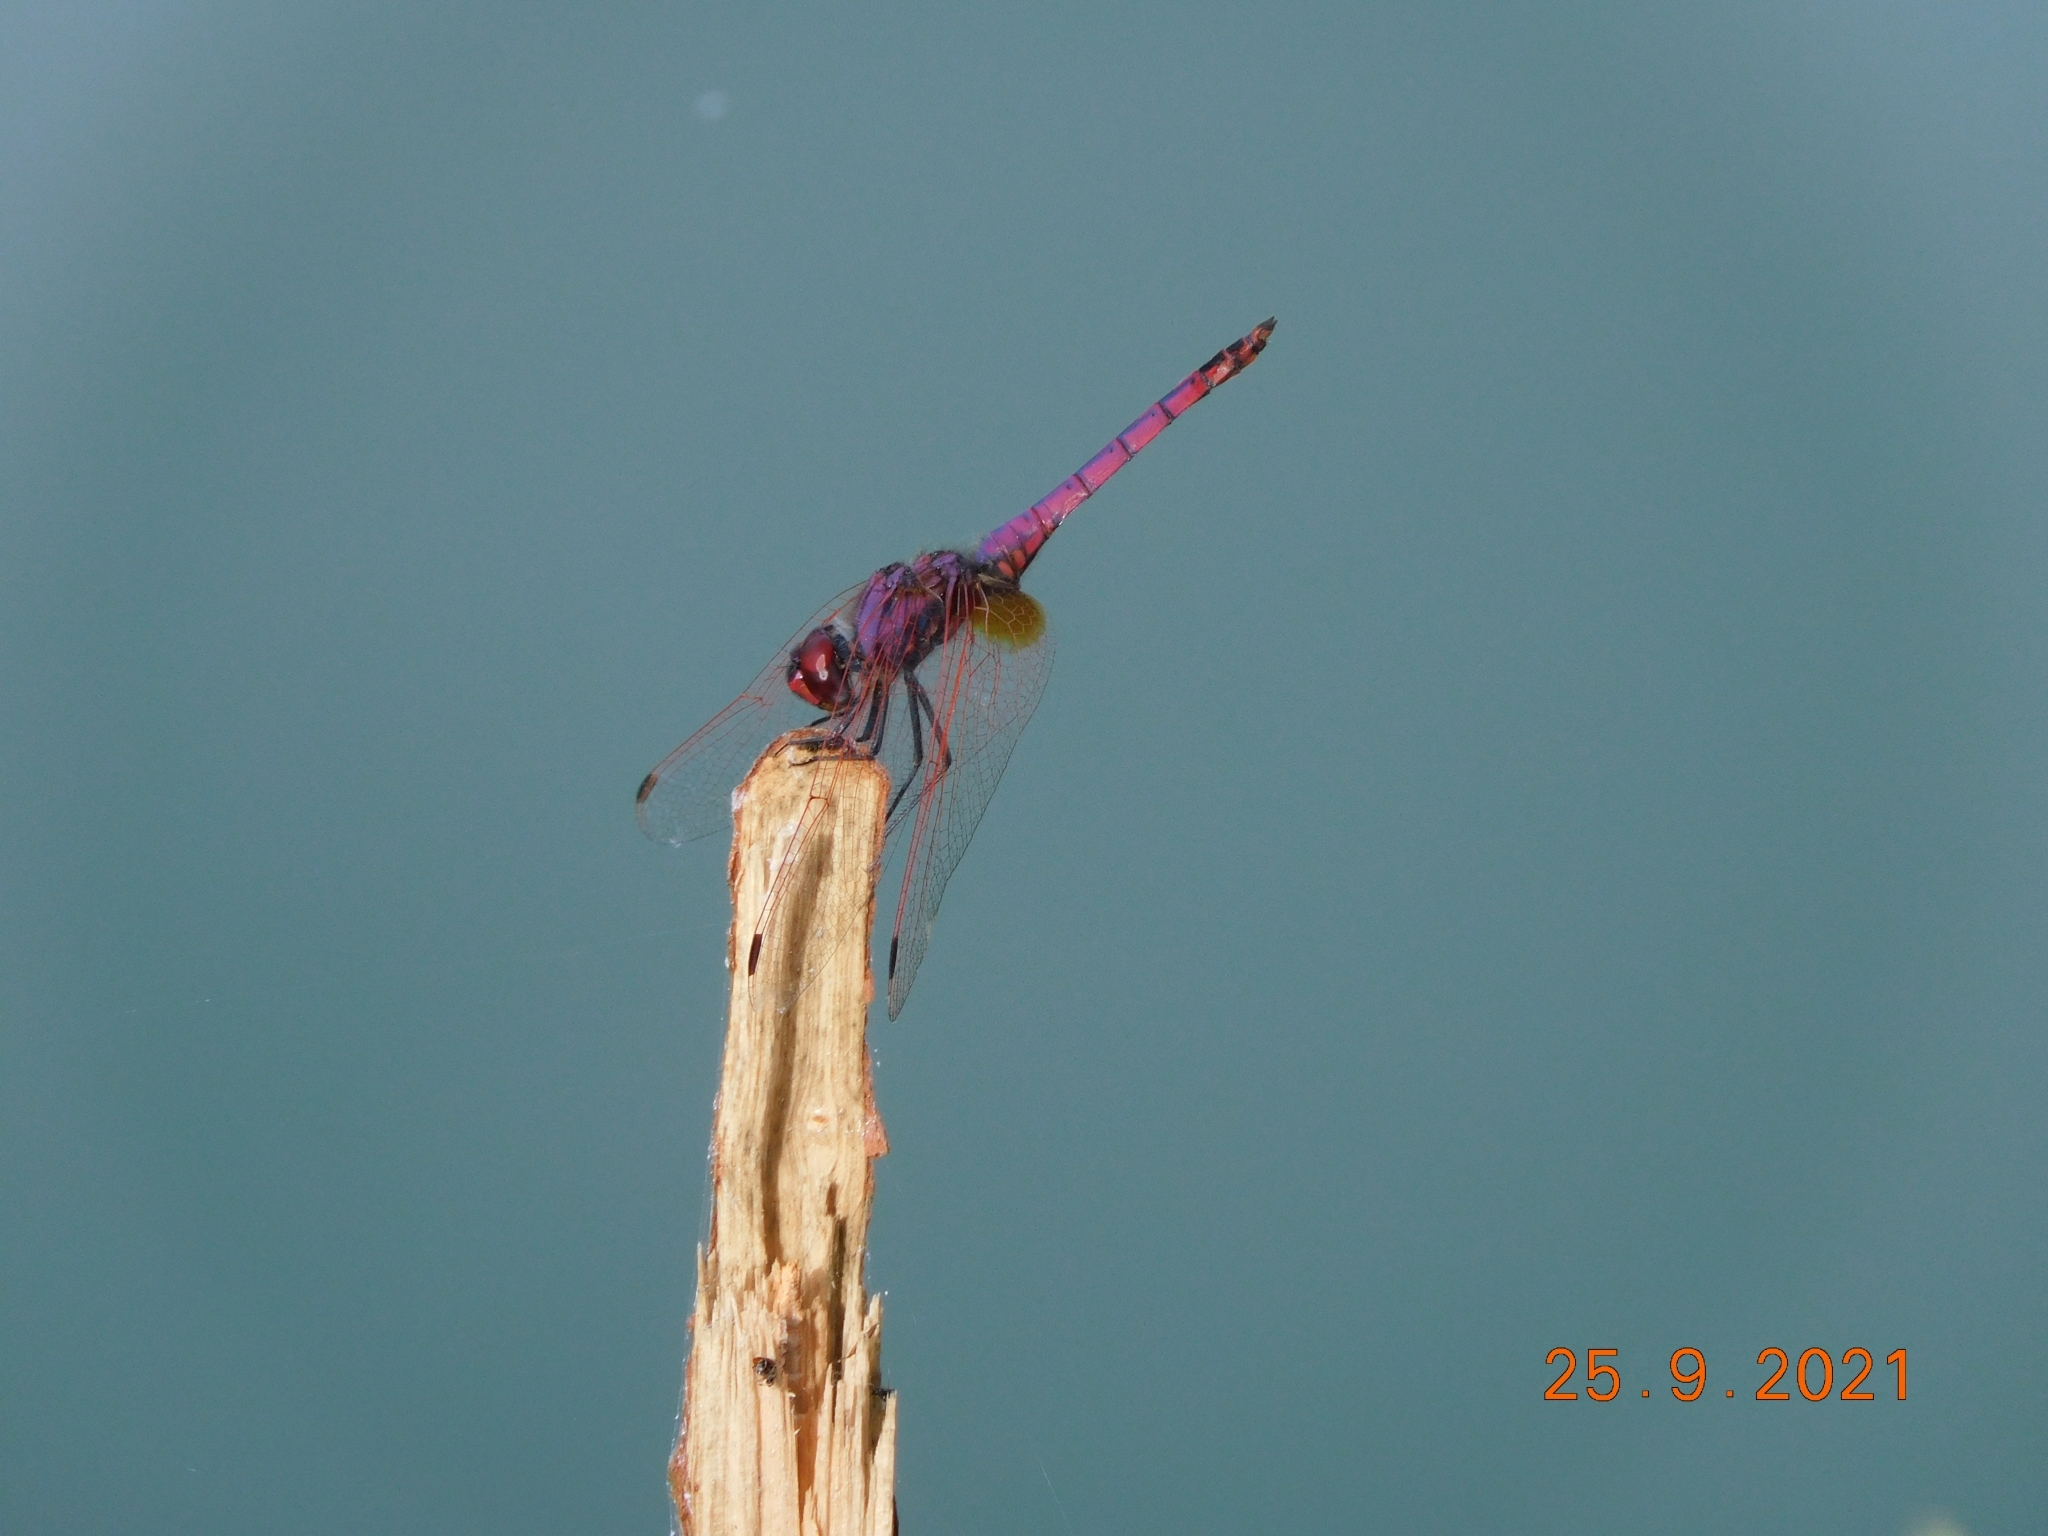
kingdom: Animalia
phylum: Arthropoda
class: Insecta
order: Odonata
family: Libellulidae
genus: Trithemis
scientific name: Trithemis annulata
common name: Violet dropwing
